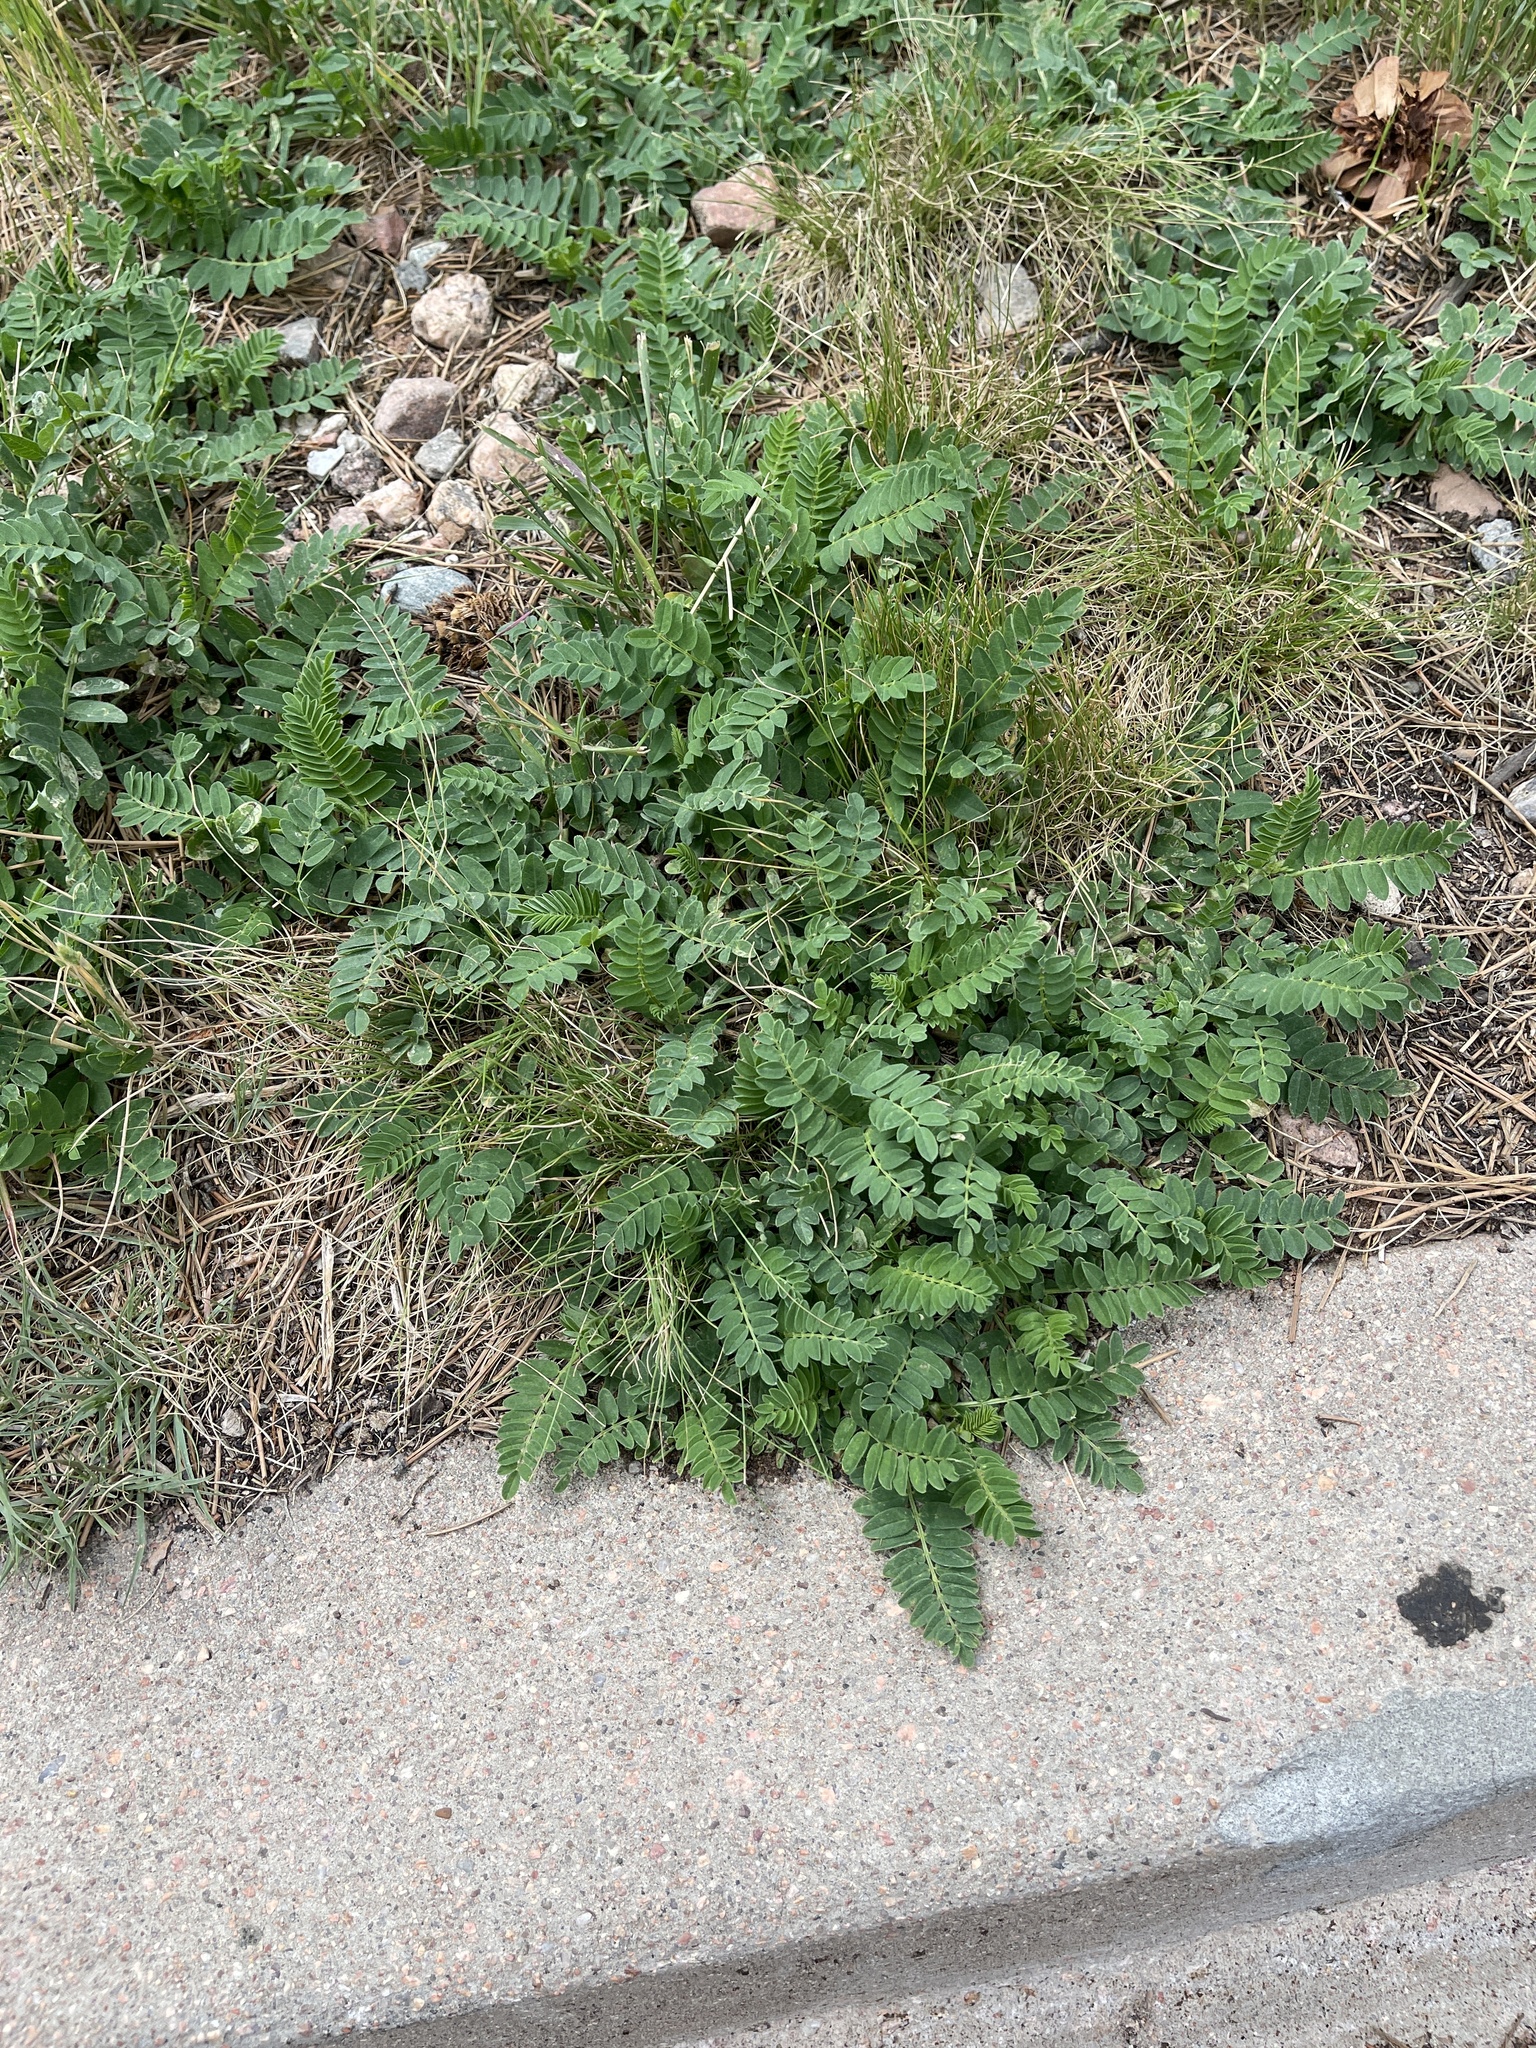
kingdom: Plantae
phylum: Tracheophyta
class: Magnoliopsida
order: Fabales
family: Fabaceae
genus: Astragalus
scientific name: Astragalus cicer
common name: Chick-pea milk-vetch
